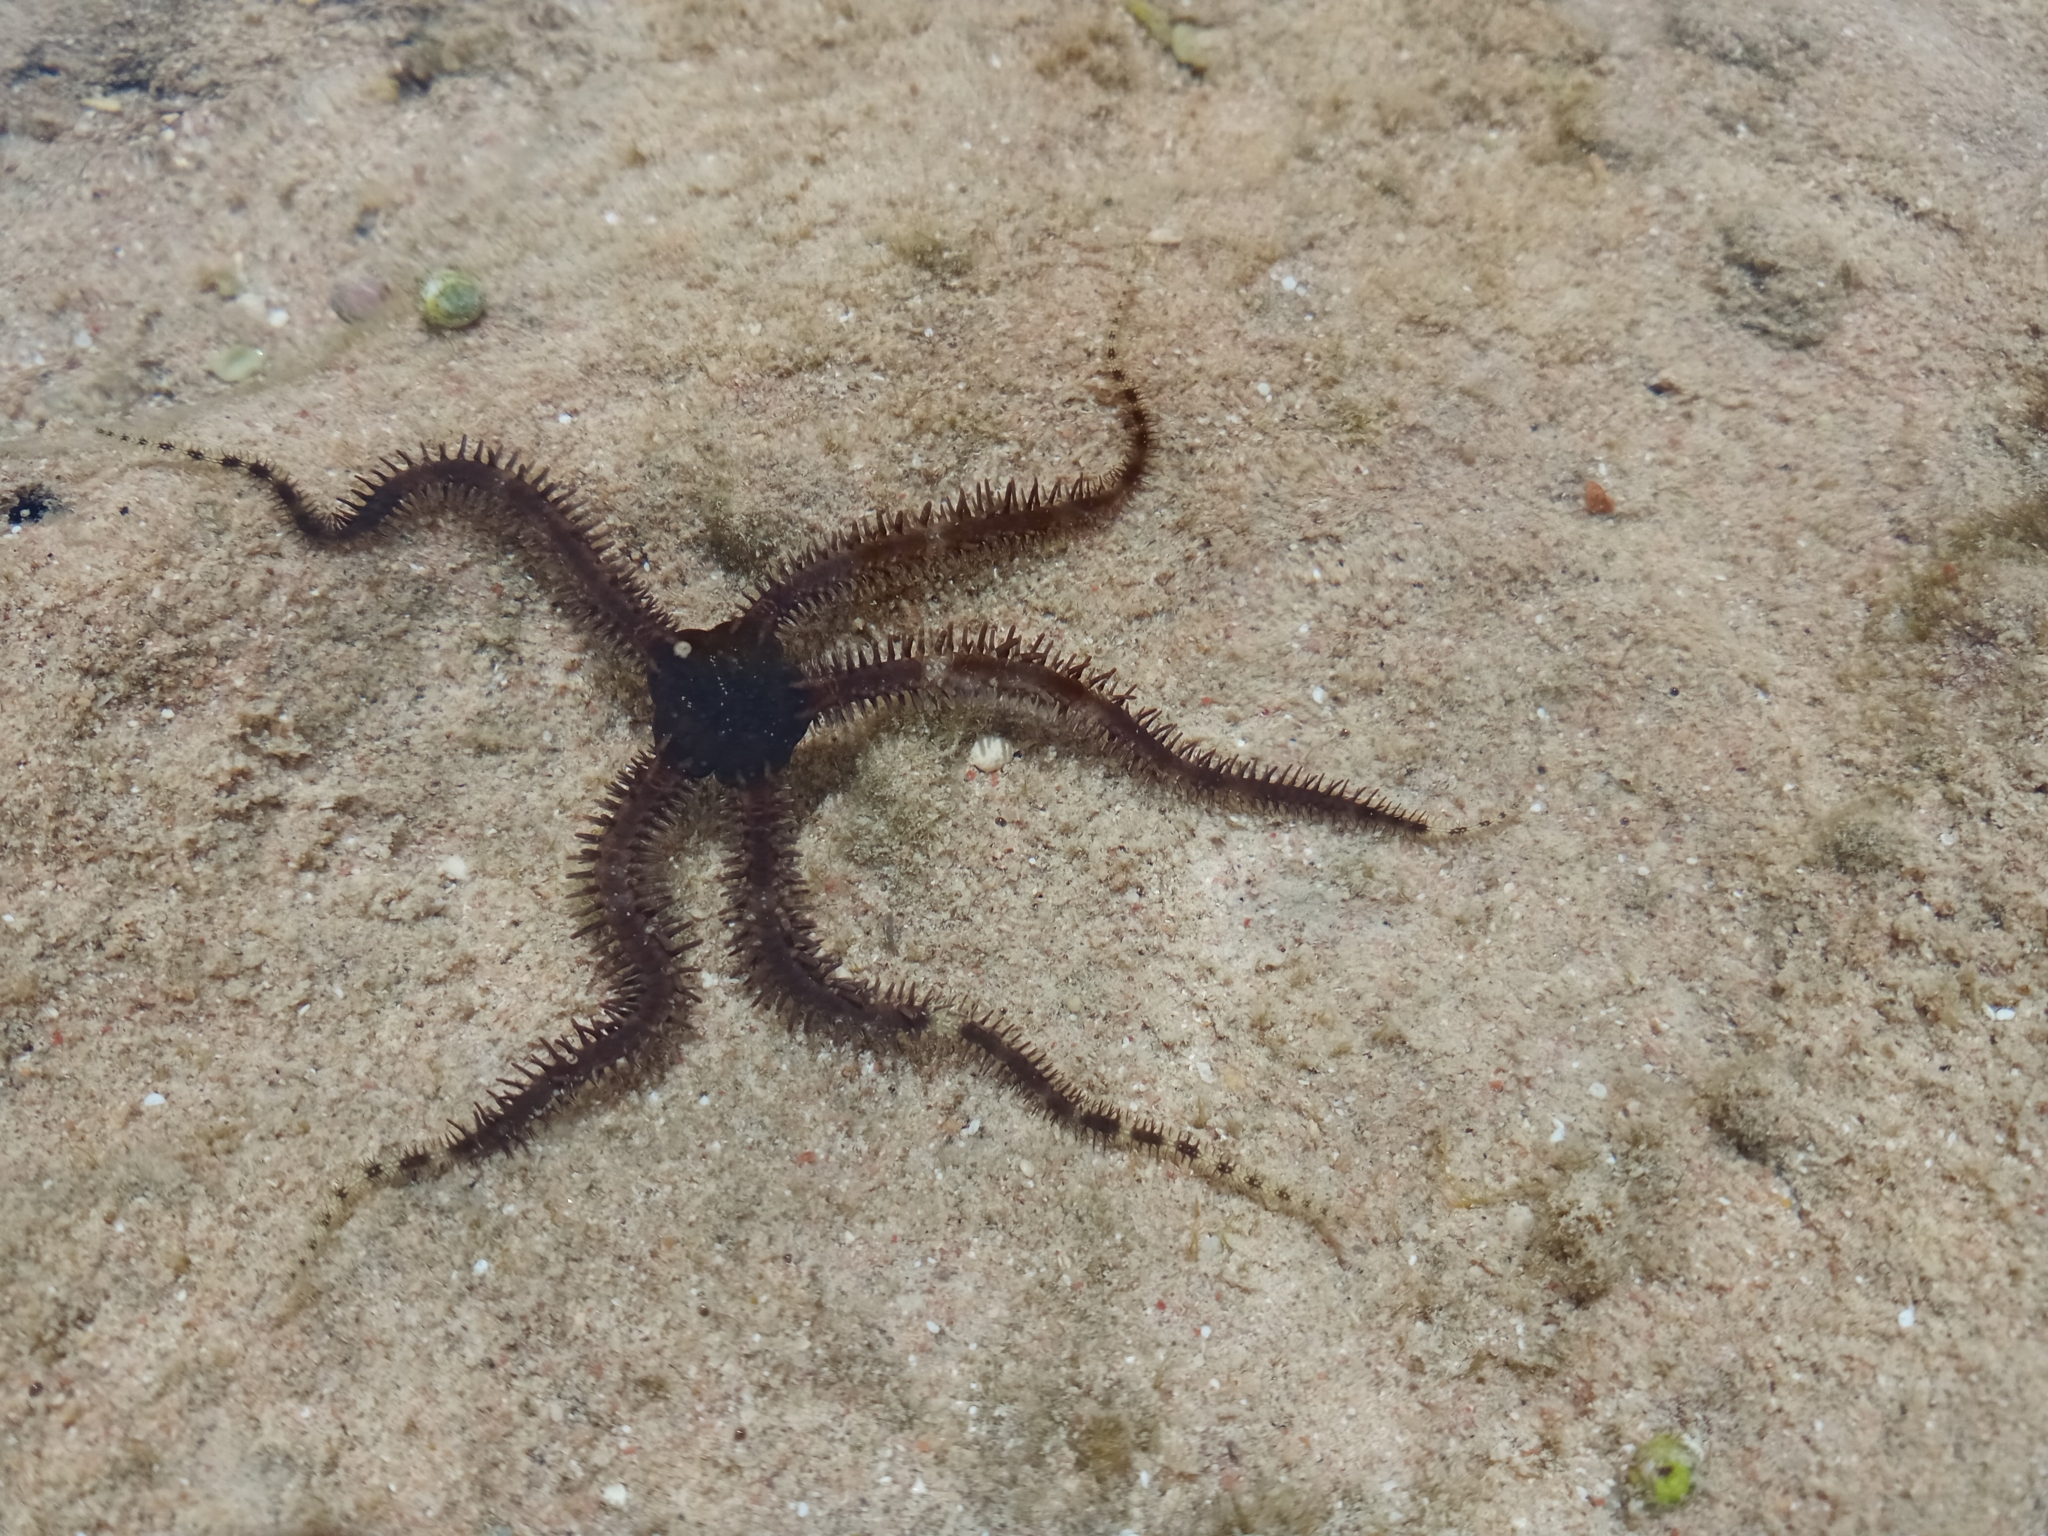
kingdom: Animalia
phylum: Echinodermata
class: Ophiuroidea
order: Ophiacanthida
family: Ophiocomidae
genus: Ophiocoma
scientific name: Ophiocoma scolopendrina
